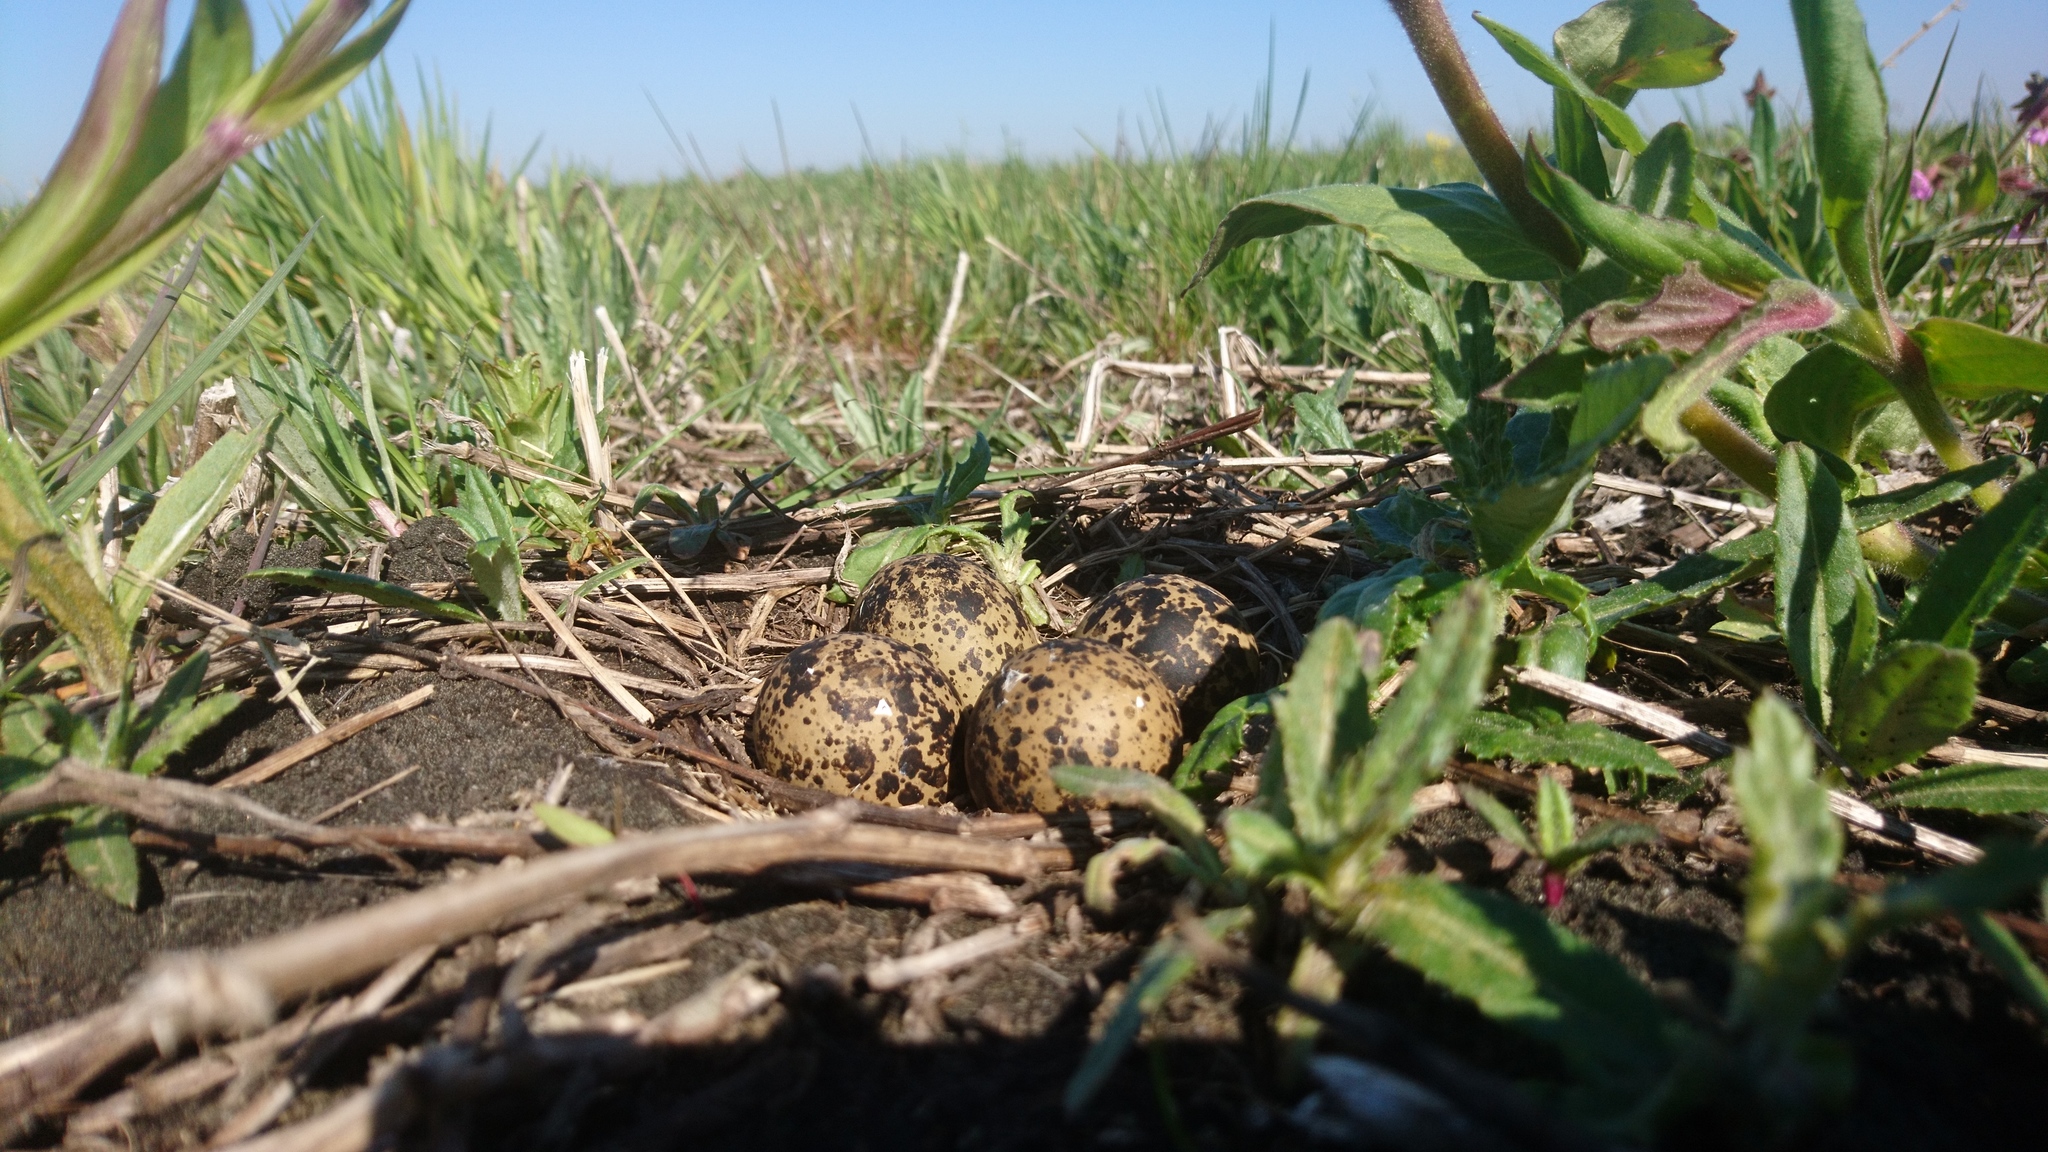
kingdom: Animalia
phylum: Chordata
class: Aves
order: Charadriiformes
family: Charadriidae
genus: Vanellus
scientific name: Vanellus vanellus
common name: Northern lapwing
